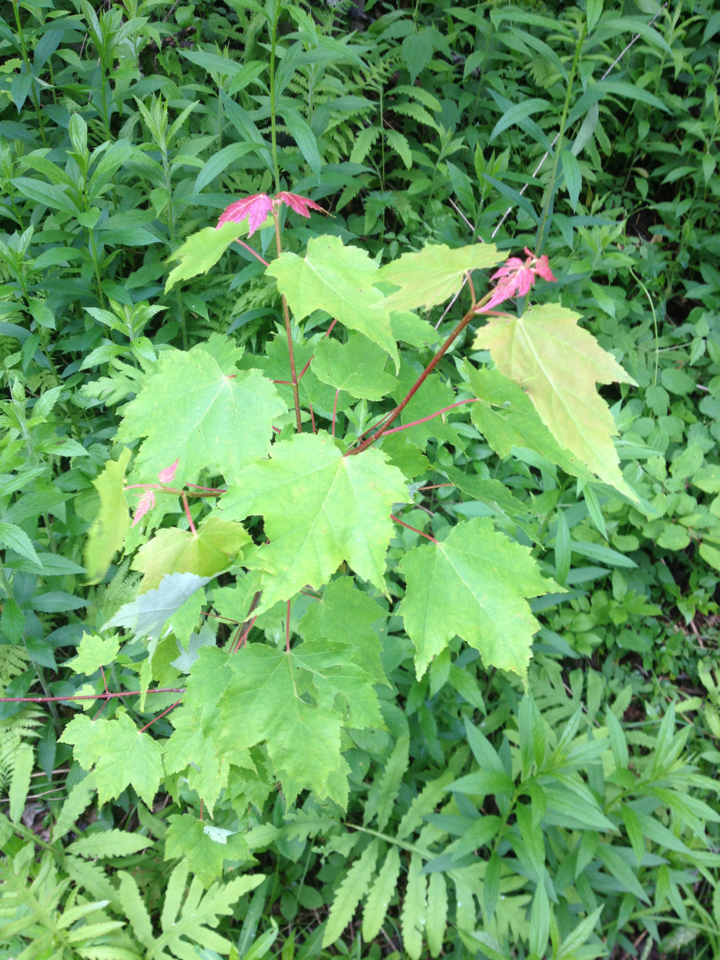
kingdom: Plantae
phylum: Tracheophyta
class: Magnoliopsida
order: Sapindales
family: Sapindaceae
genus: Acer
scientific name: Acer rubrum
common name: Red maple
